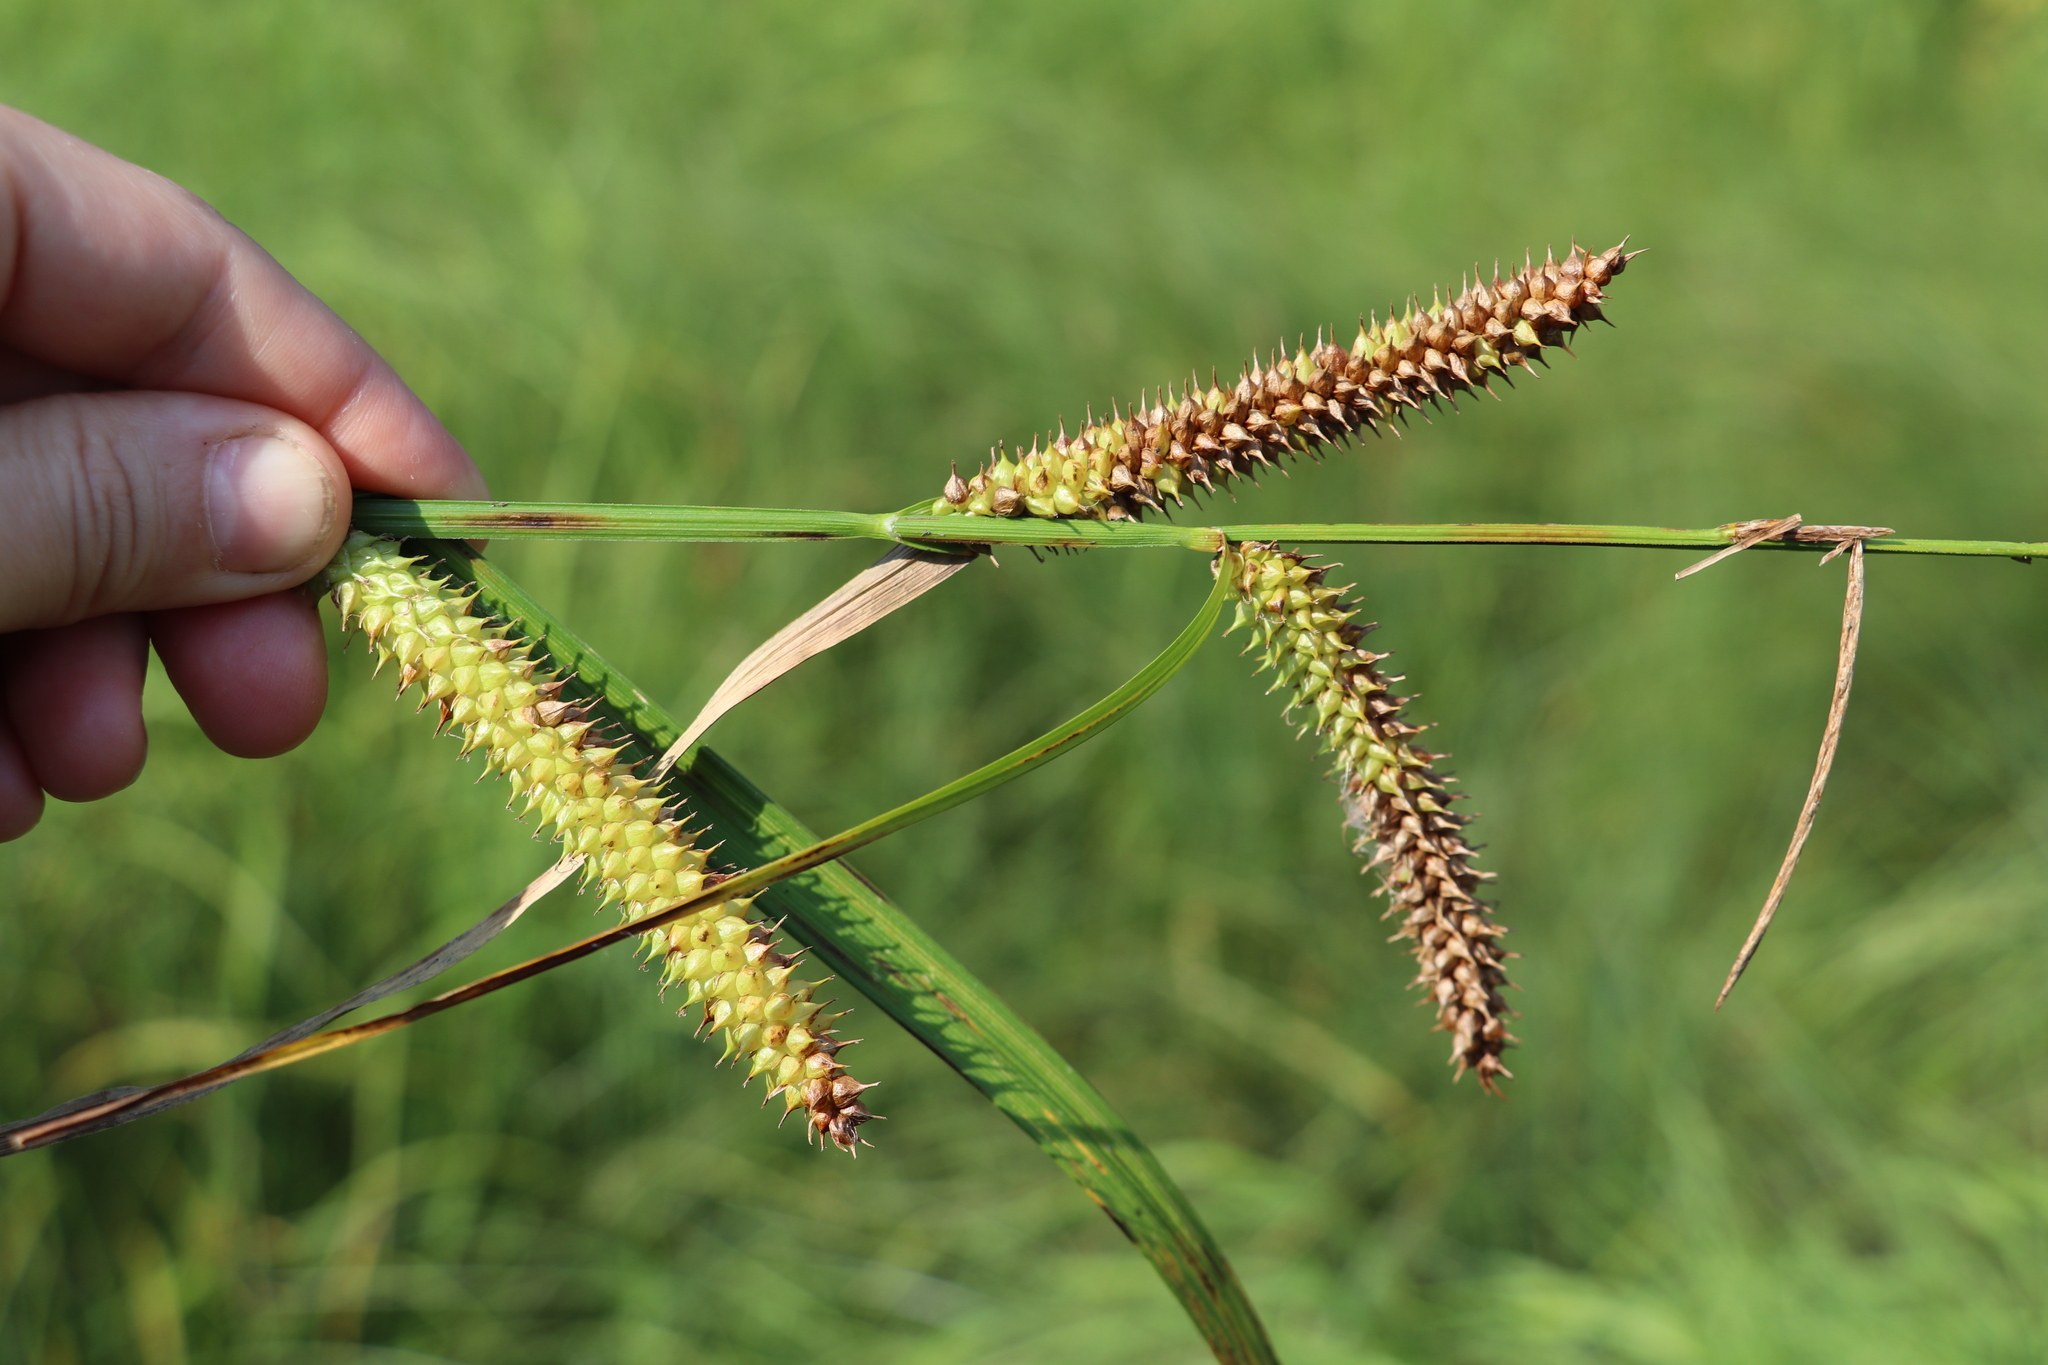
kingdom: Plantae
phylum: Tracheophyta
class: Liliopsida
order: Poales
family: Cyperaceae
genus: Carex
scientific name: Carex utriculata
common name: Beaked sedge
